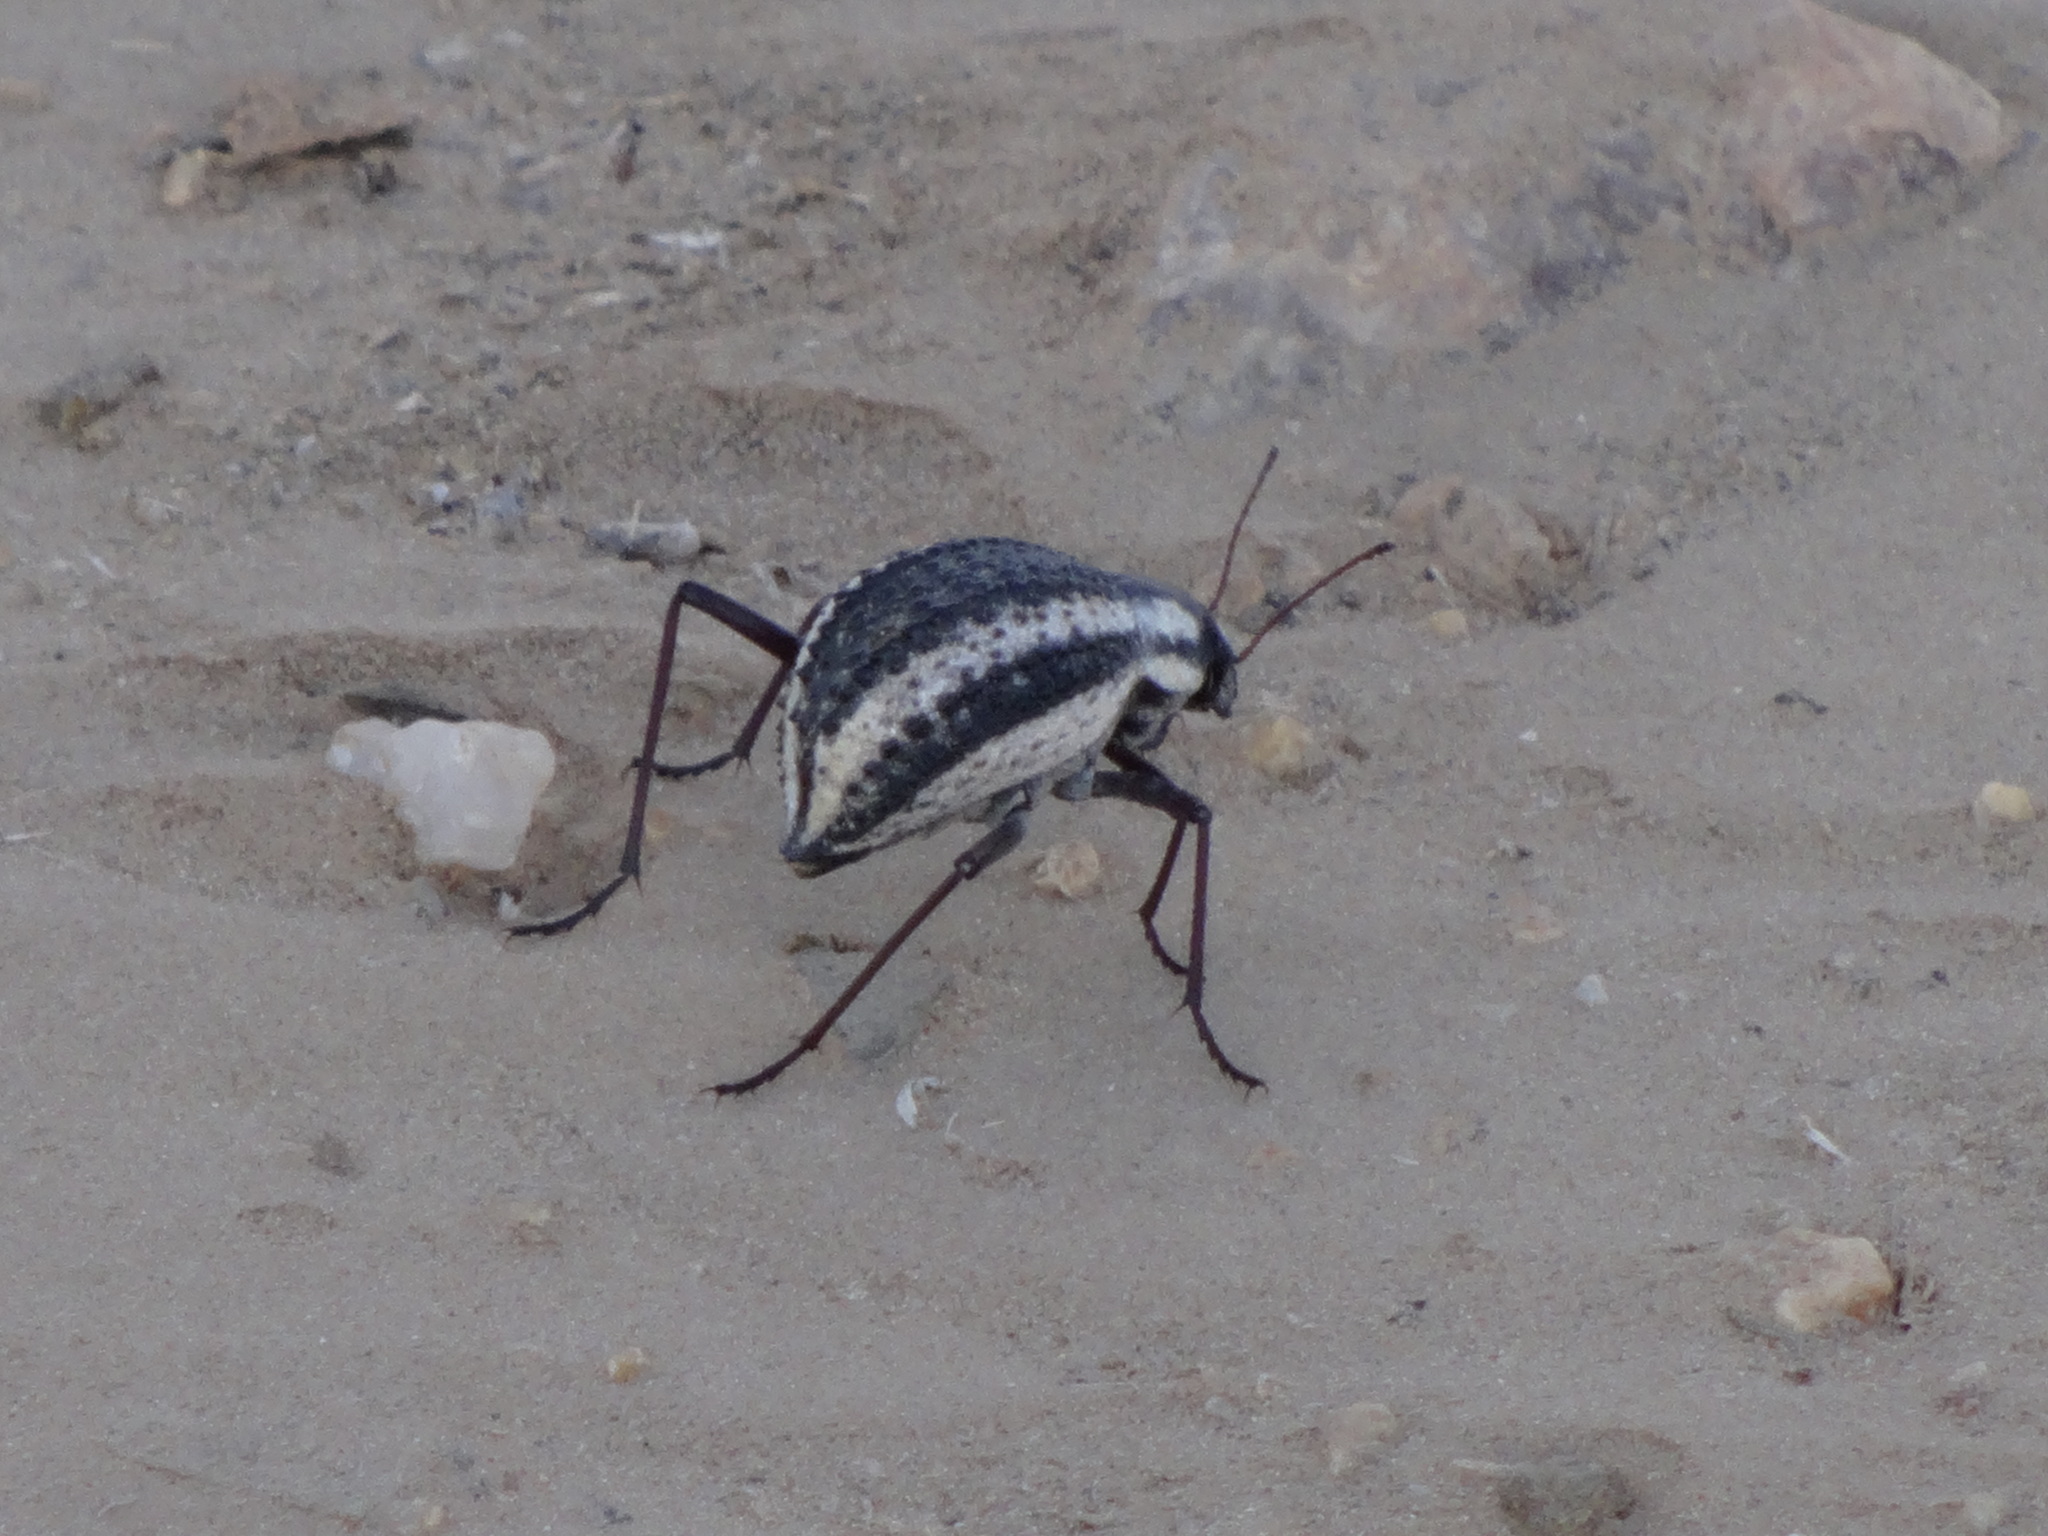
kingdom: Animalia
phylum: Arthropoda
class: Insecta
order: Coleoptera
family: Tenebrionidae
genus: Stenocara
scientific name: Stenocara
